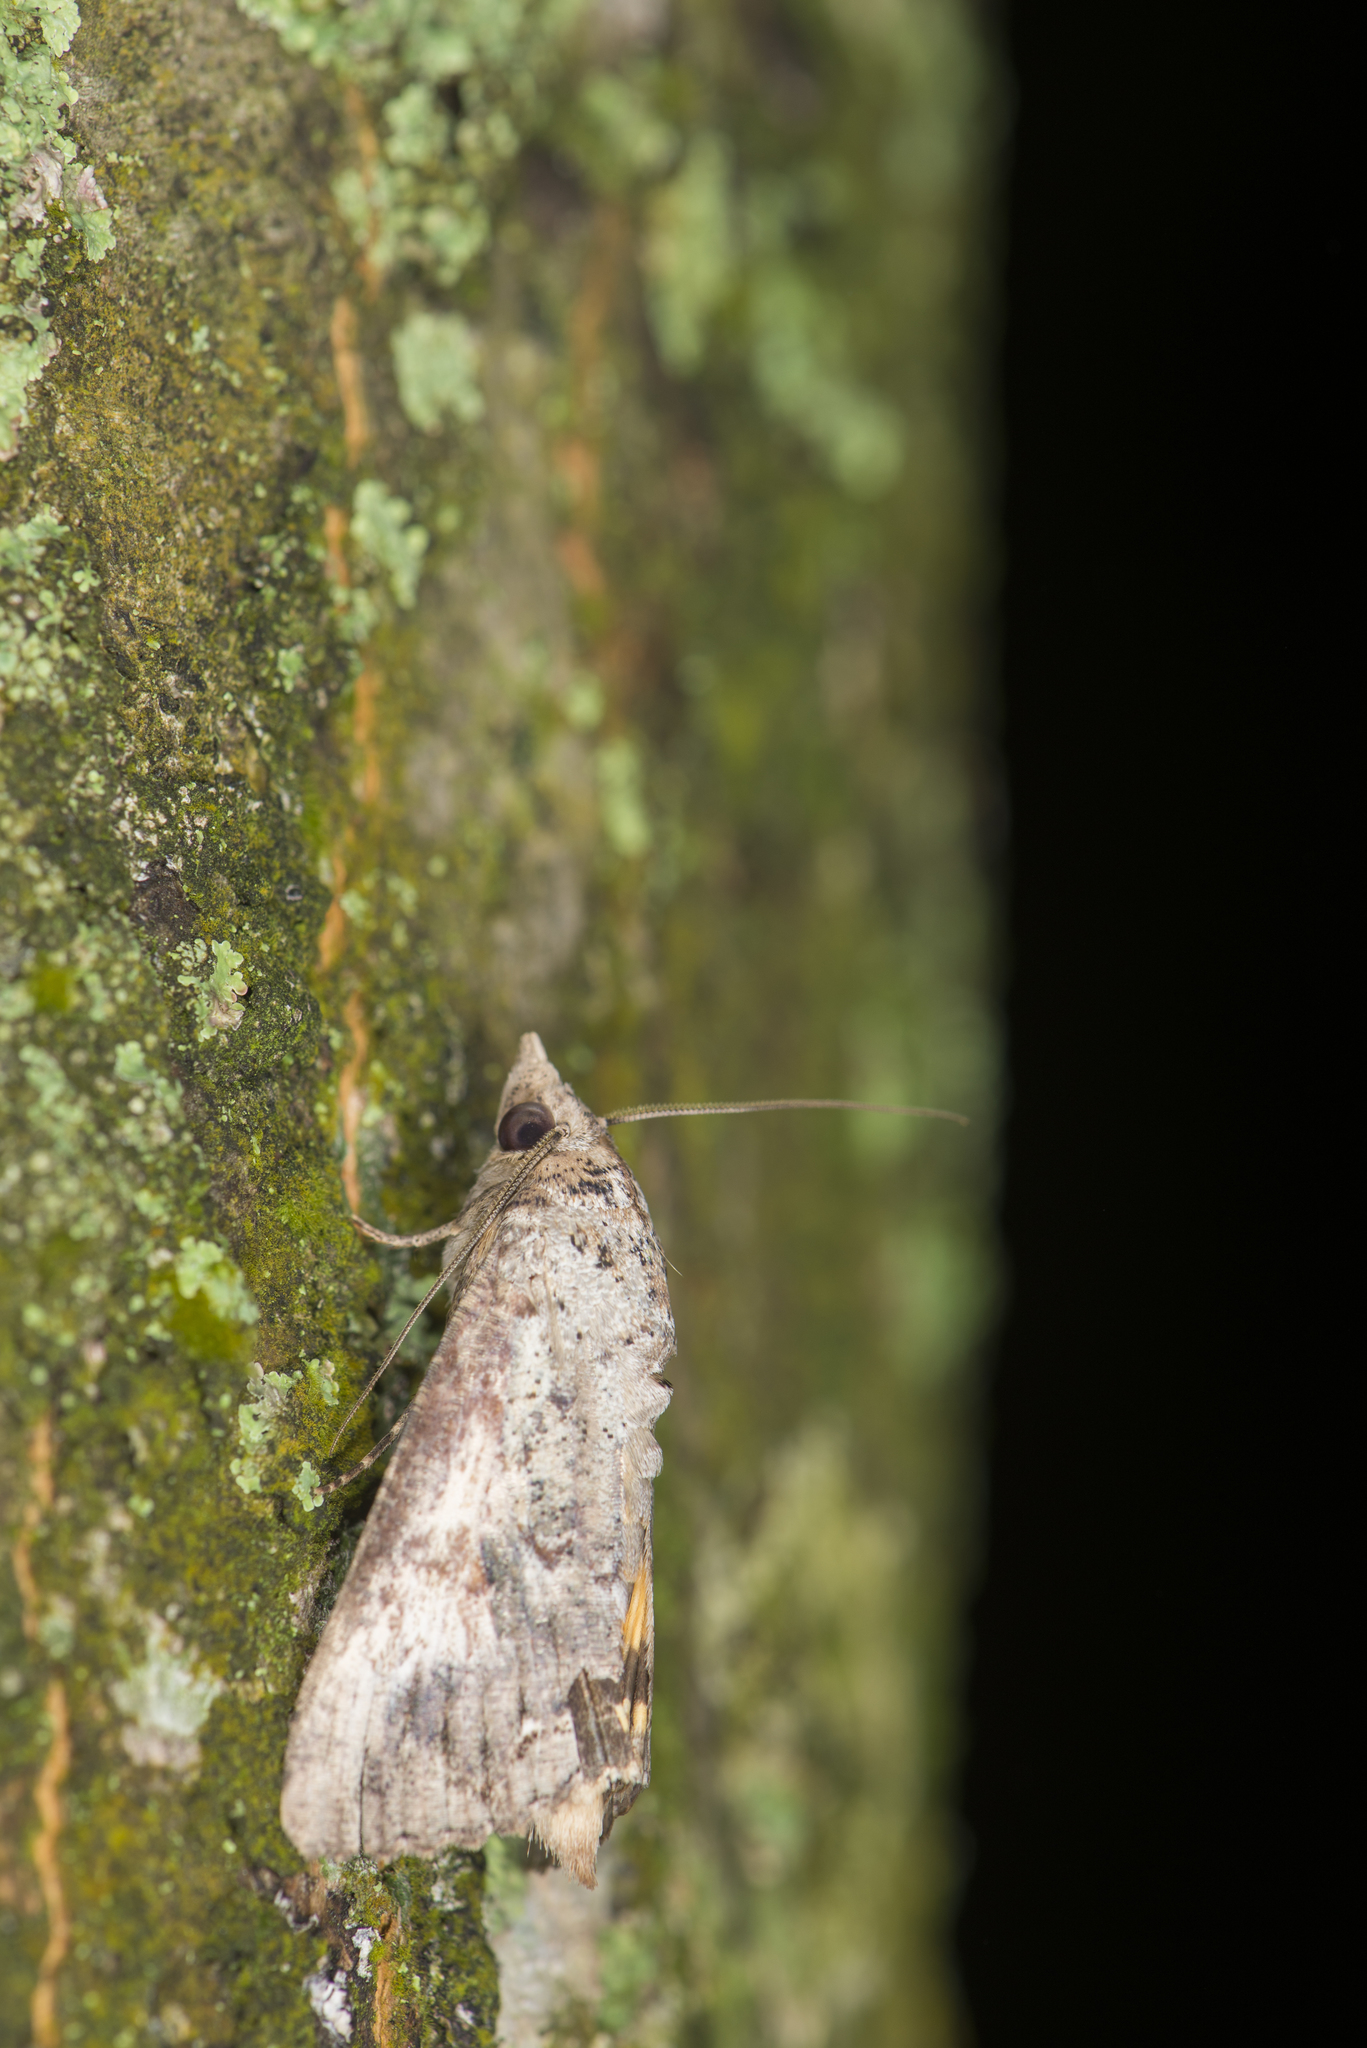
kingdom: Animalia
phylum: Arthropoda
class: Insecta
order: Lepidoptera
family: Erebidae
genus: Hypocala
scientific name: Hypocala deflorata
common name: Moth
